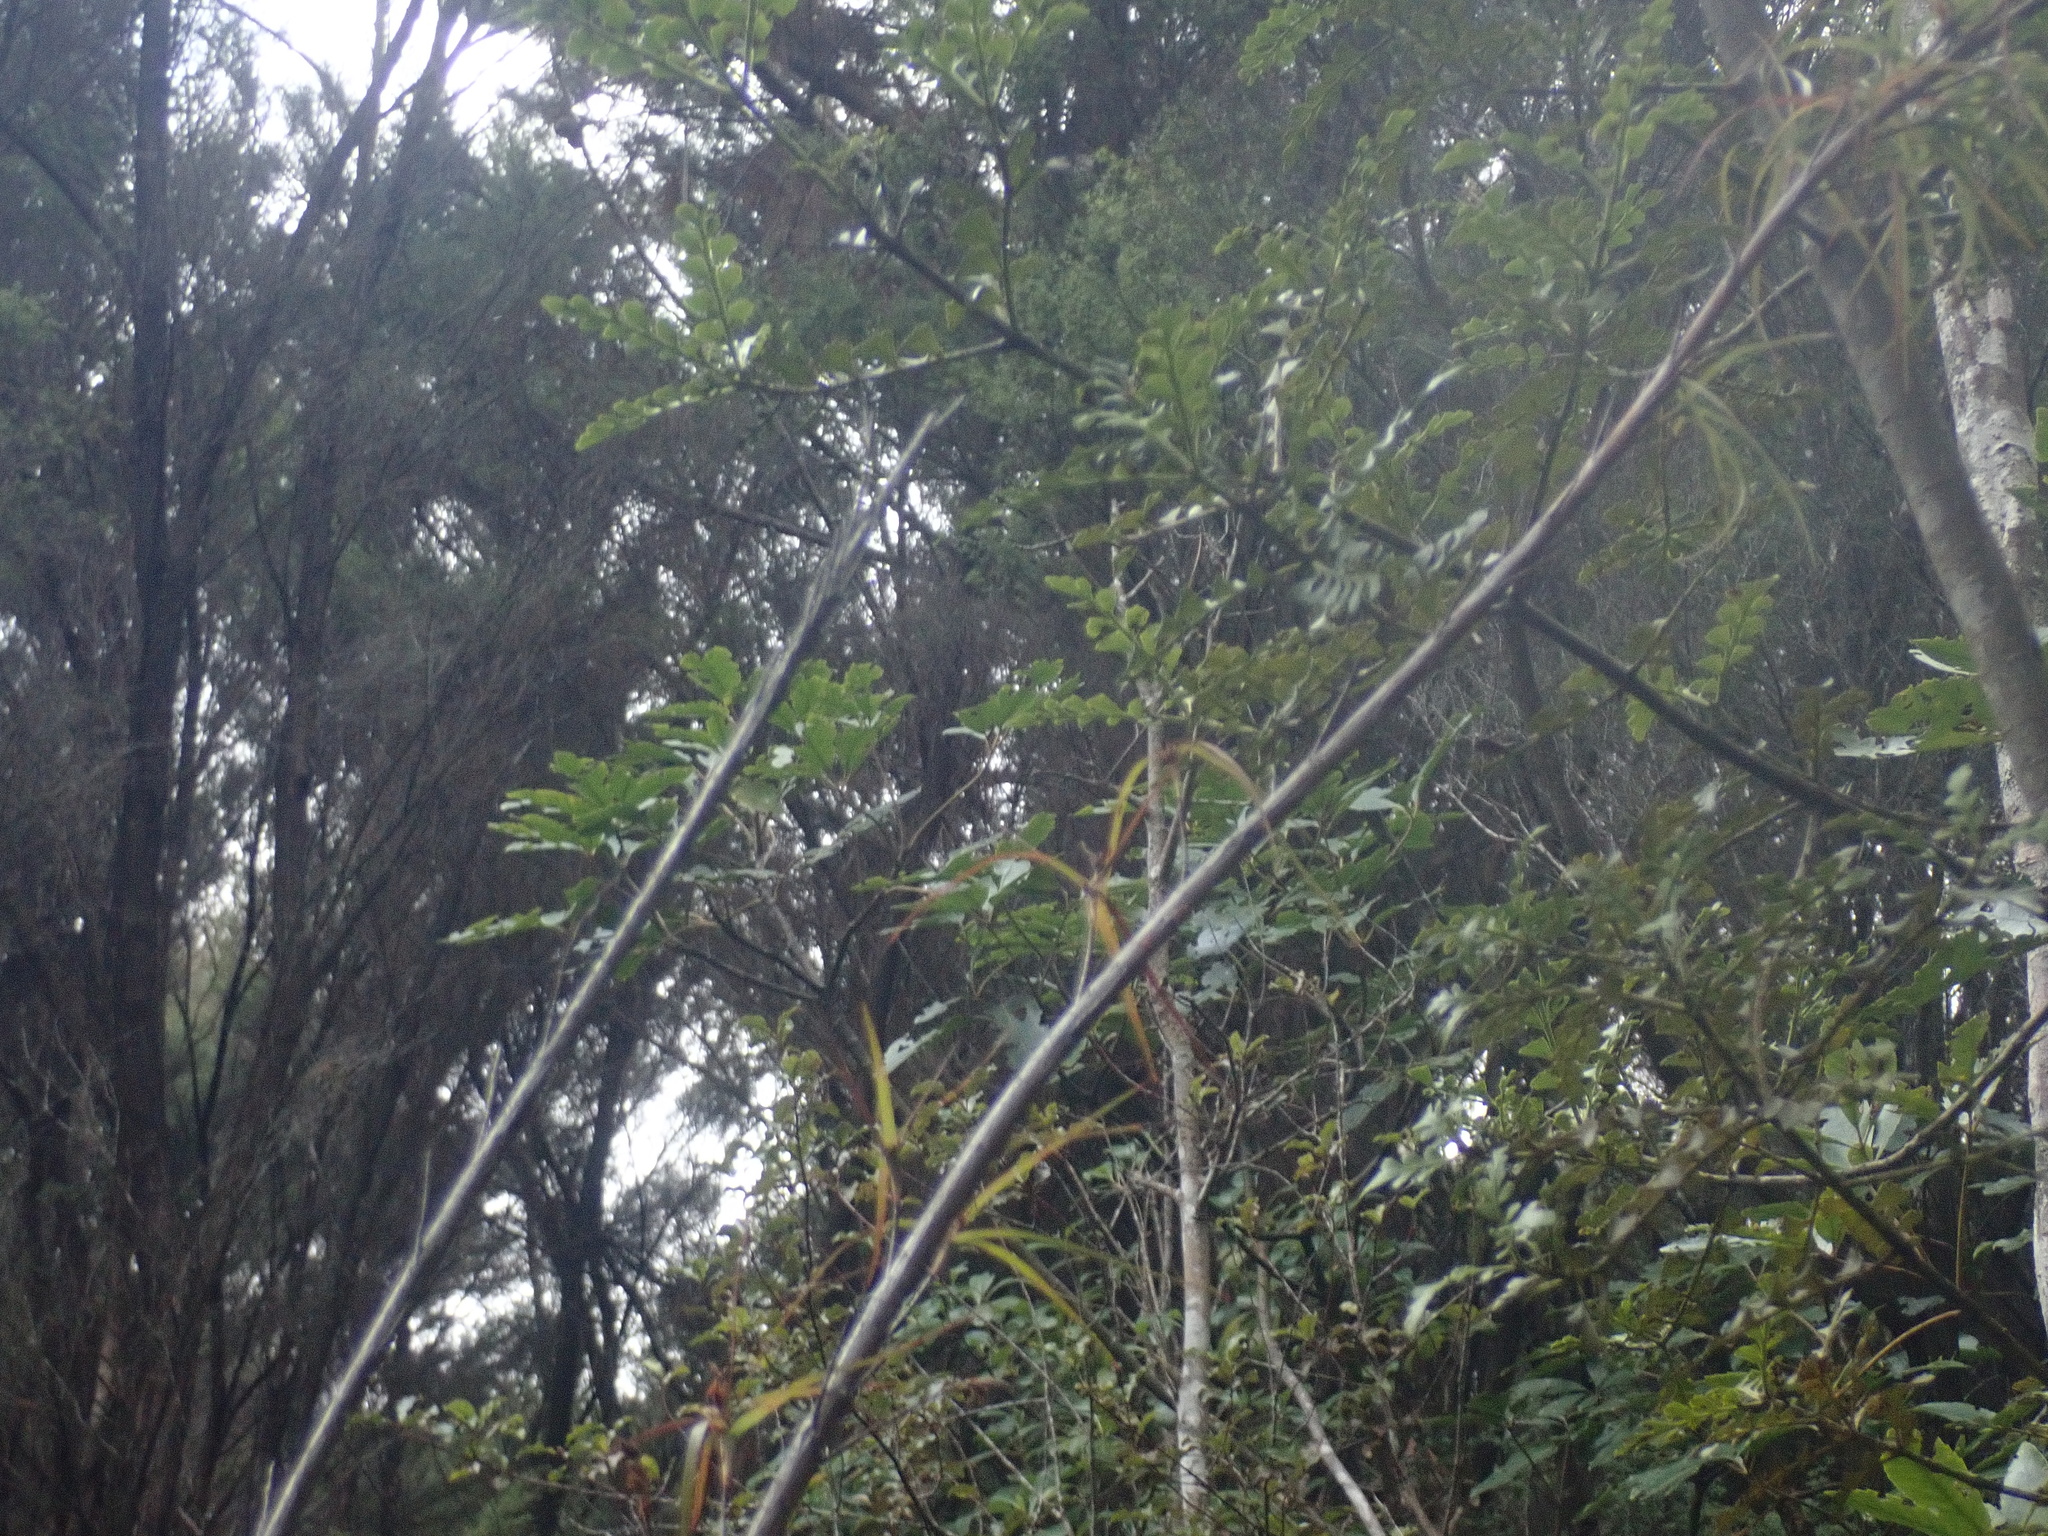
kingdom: Plantae
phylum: Tracheophyta
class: Pinopsida
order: Pinales
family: Phyllocladaceae
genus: Phyllocladus
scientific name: Phyllocladus trichomanoides
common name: Celery pine
